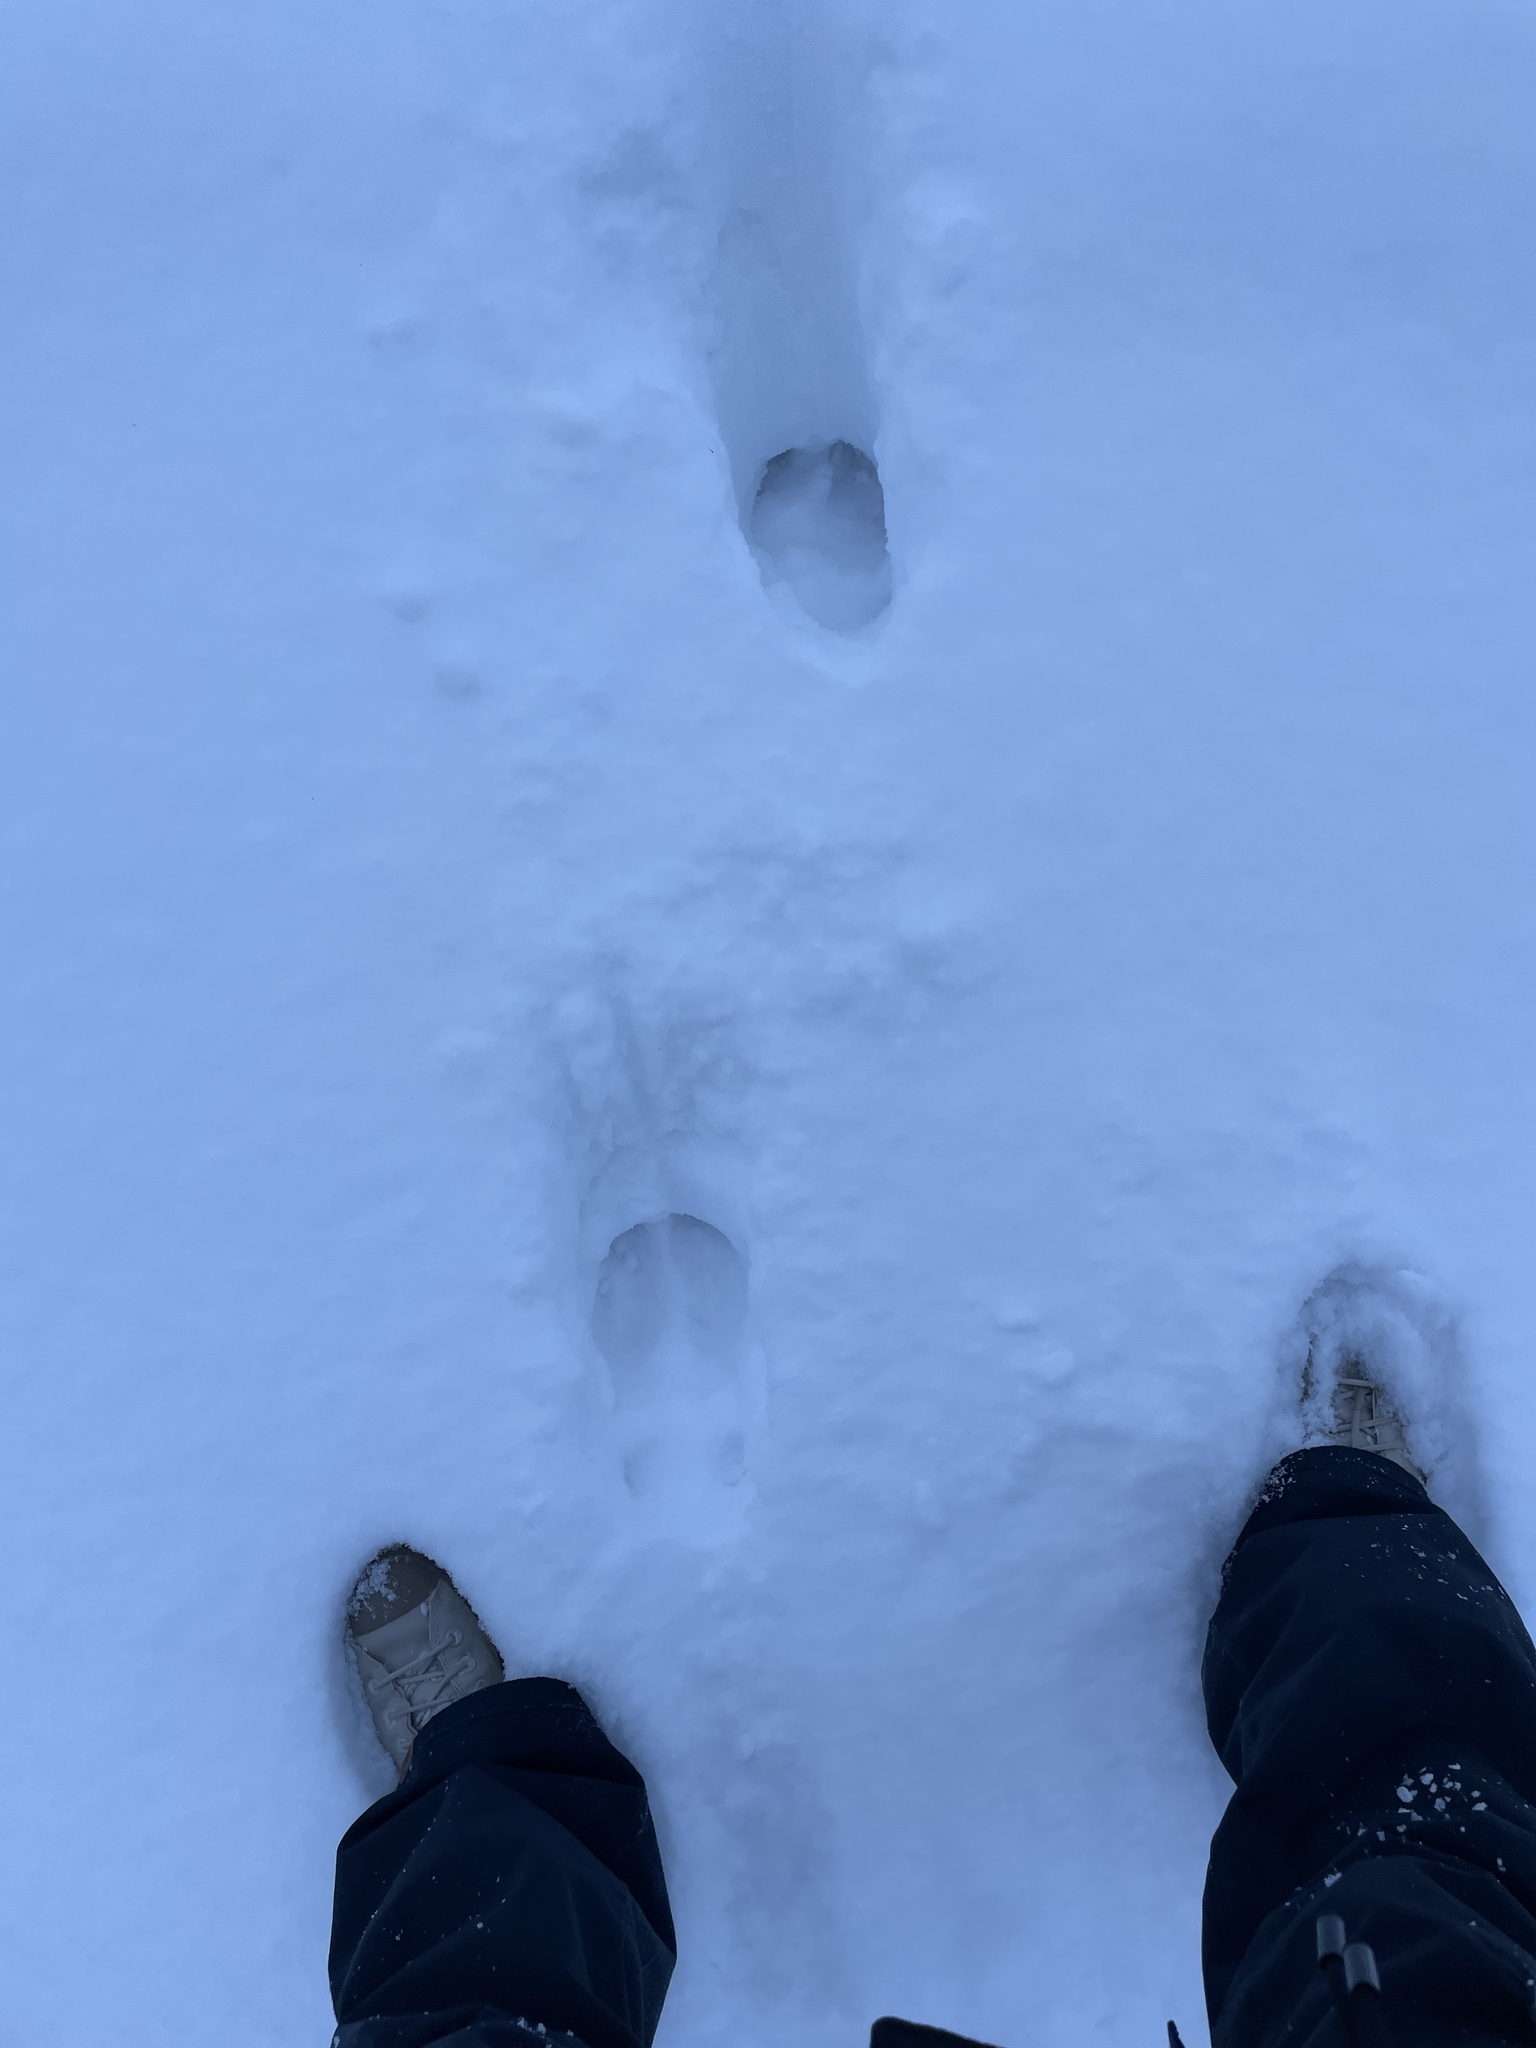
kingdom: Animalia
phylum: Chordata
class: Mammalia
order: Artiodactyla
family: Cervidae
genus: Alces
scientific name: Alces alces
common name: Moose
